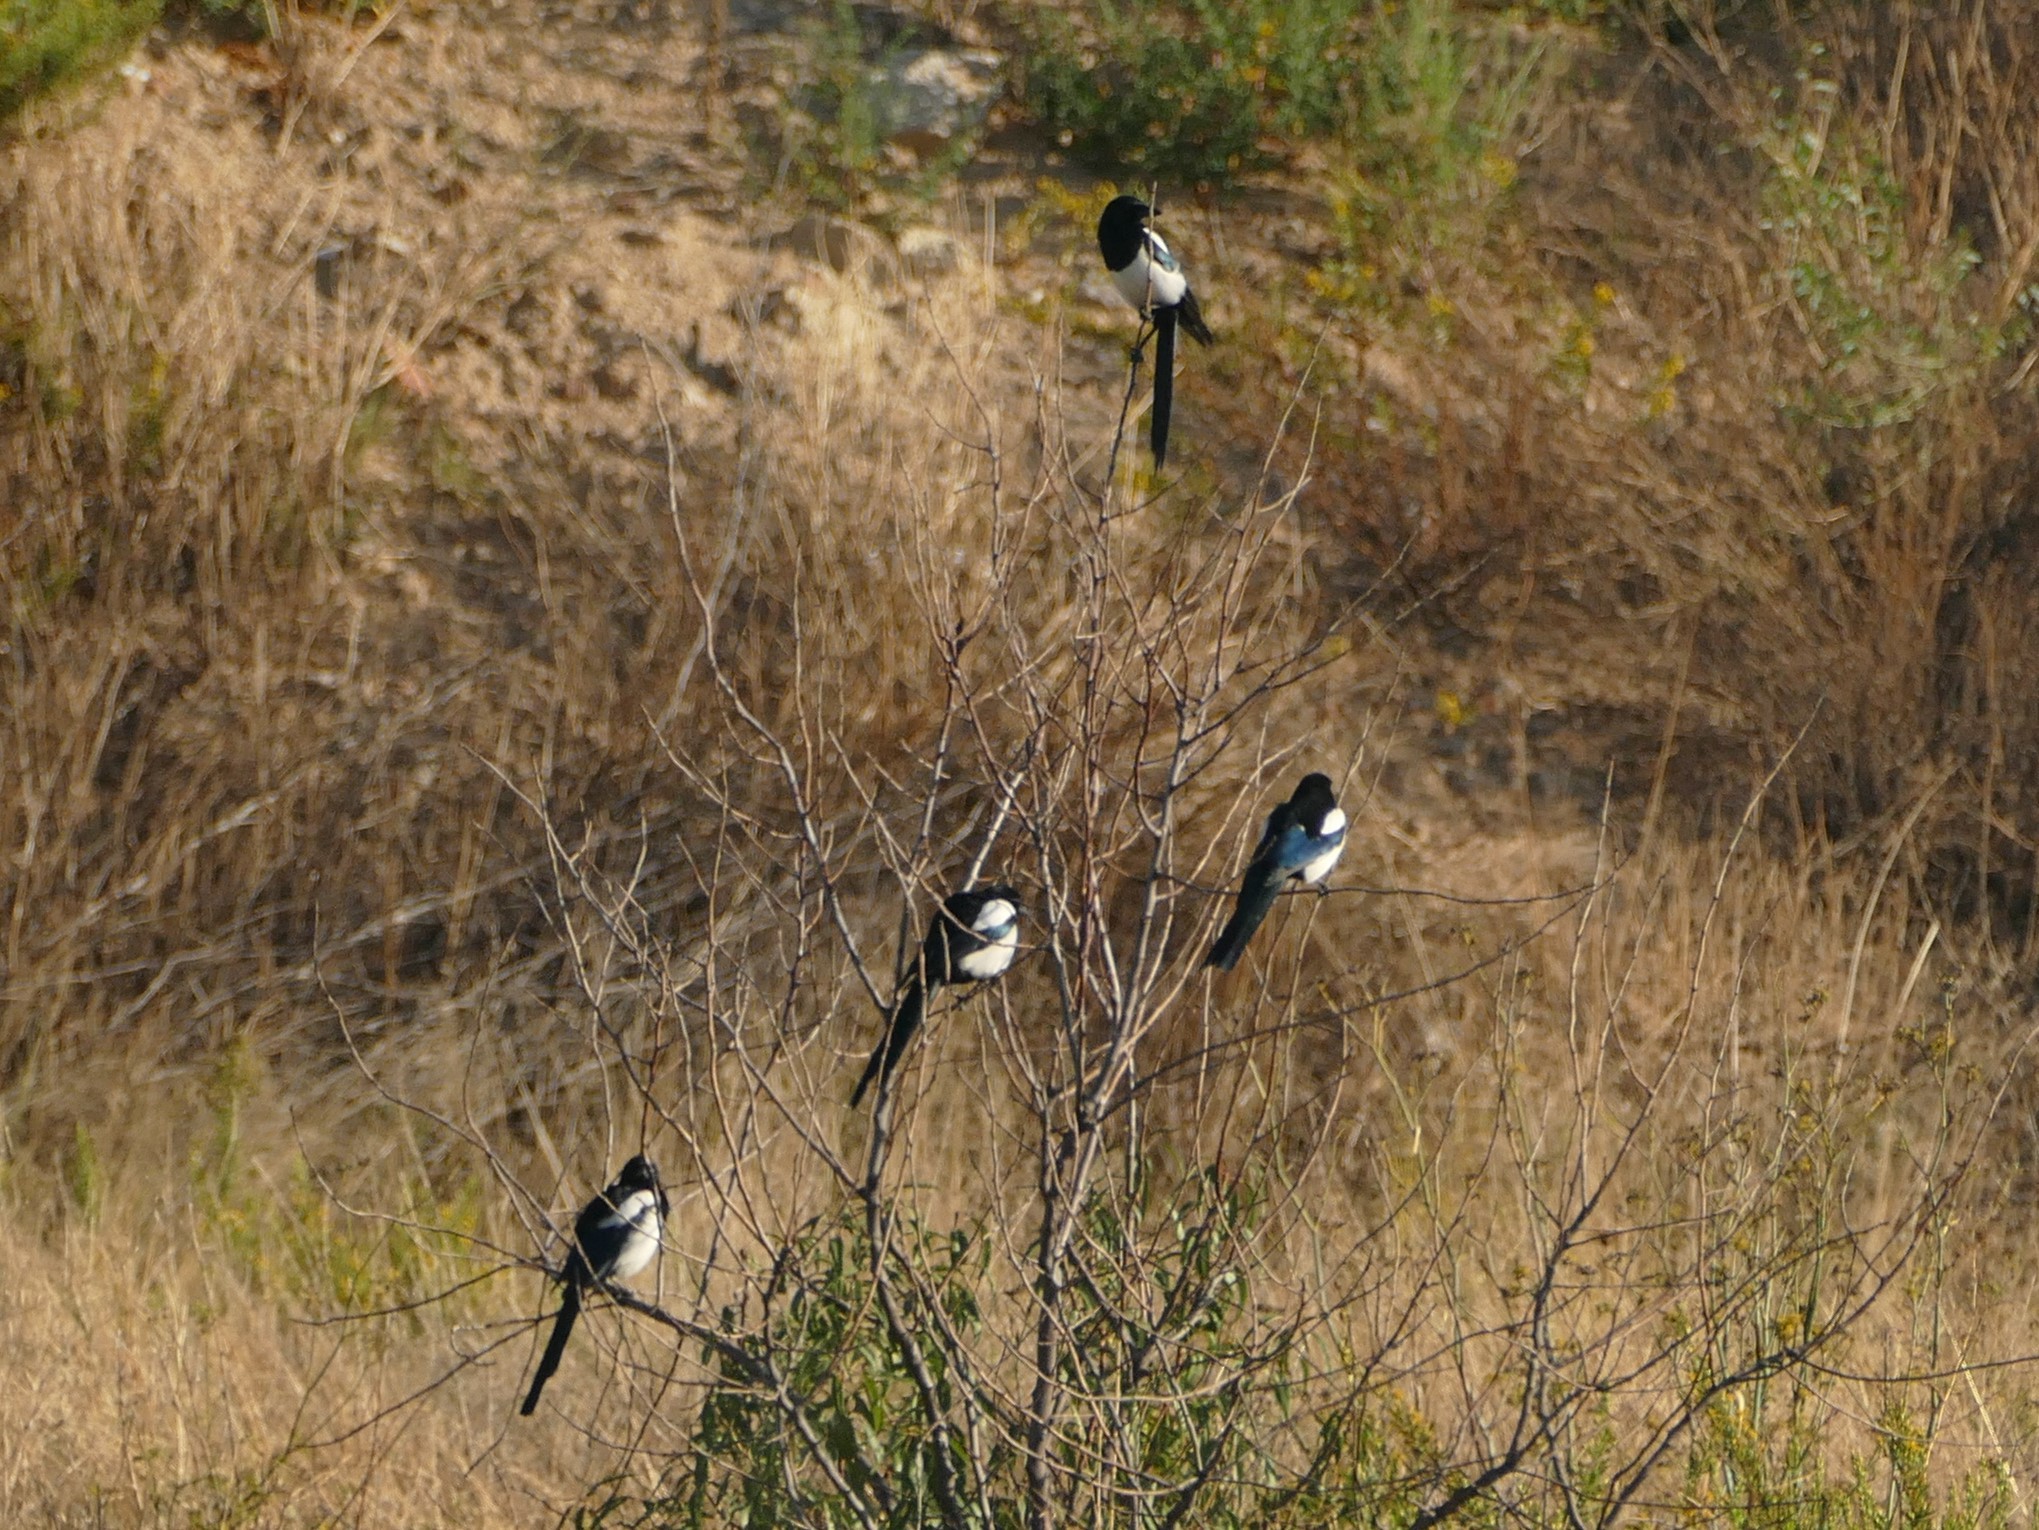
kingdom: Animalia
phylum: Chordata
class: Aves
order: Passeriformes
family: Corvidae
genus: Pica
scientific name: Pica pica
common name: Eurasian magpie
